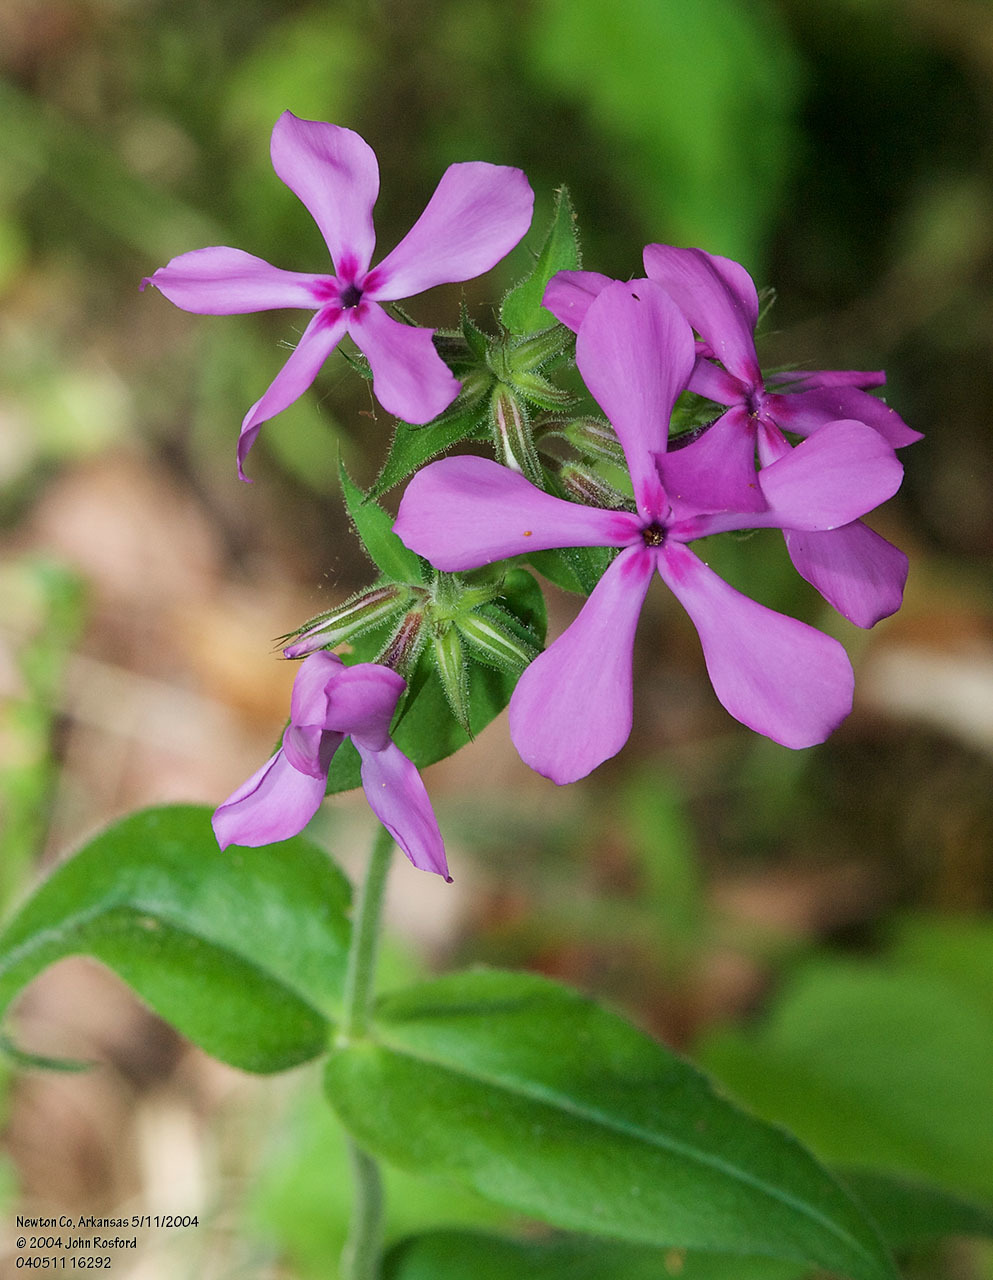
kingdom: Plantae
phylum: Tracheophyta
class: Magnoliopsida
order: Ericales
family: Polemoniaceae
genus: Phlox
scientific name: Phlox pilosa
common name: Prairie phlox
